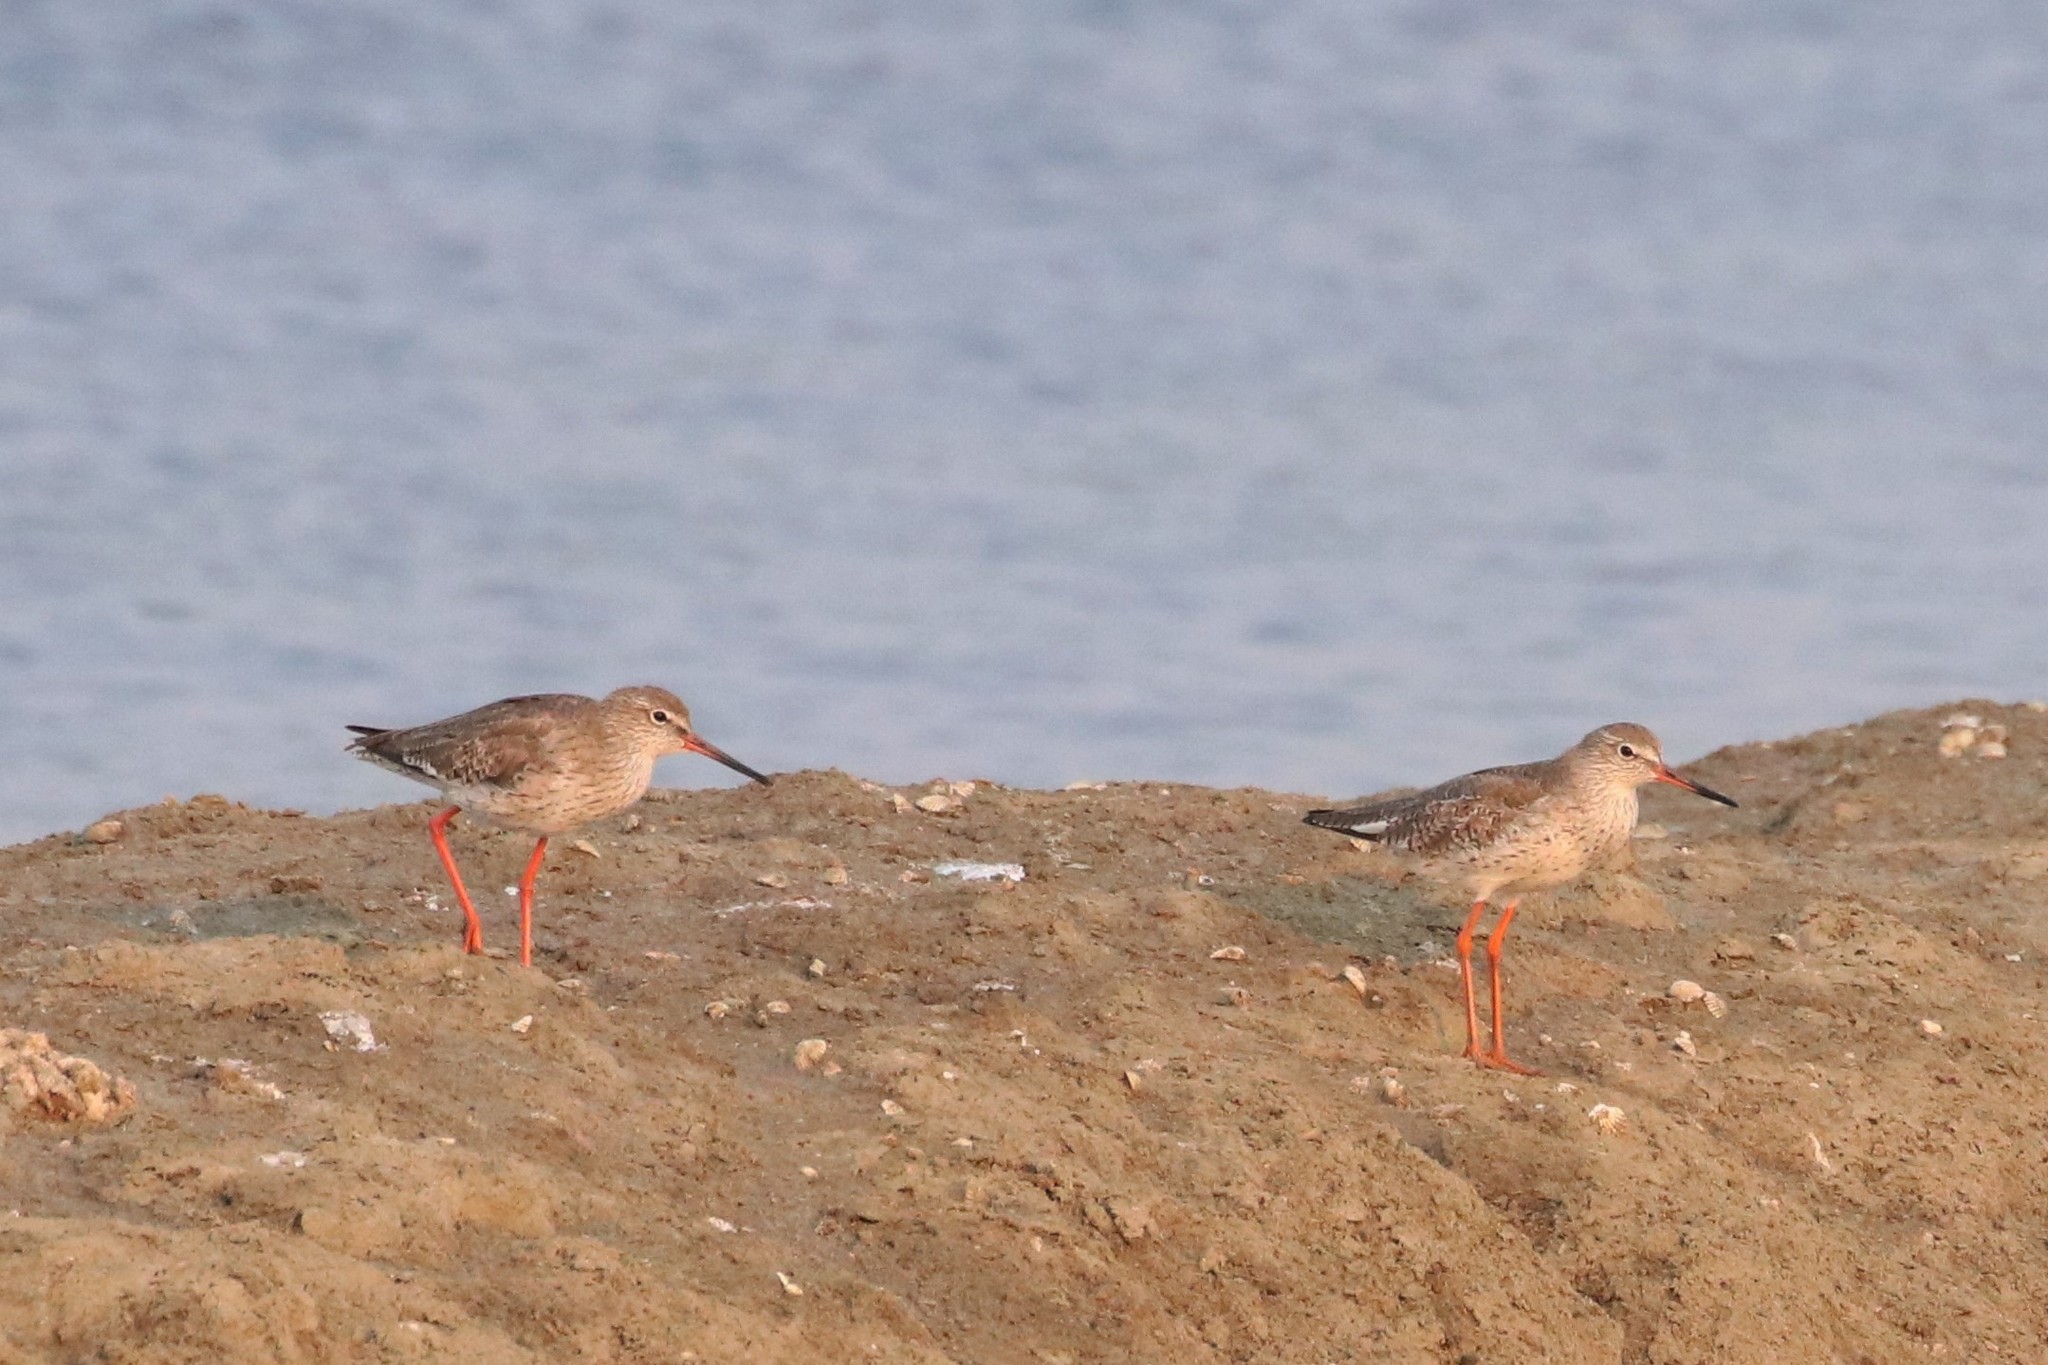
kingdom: Animalia
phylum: Chordata
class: Aves
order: Charadriiformes
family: Scolopacidae
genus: Tringa
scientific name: Tringa totanus
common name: Common redshank
